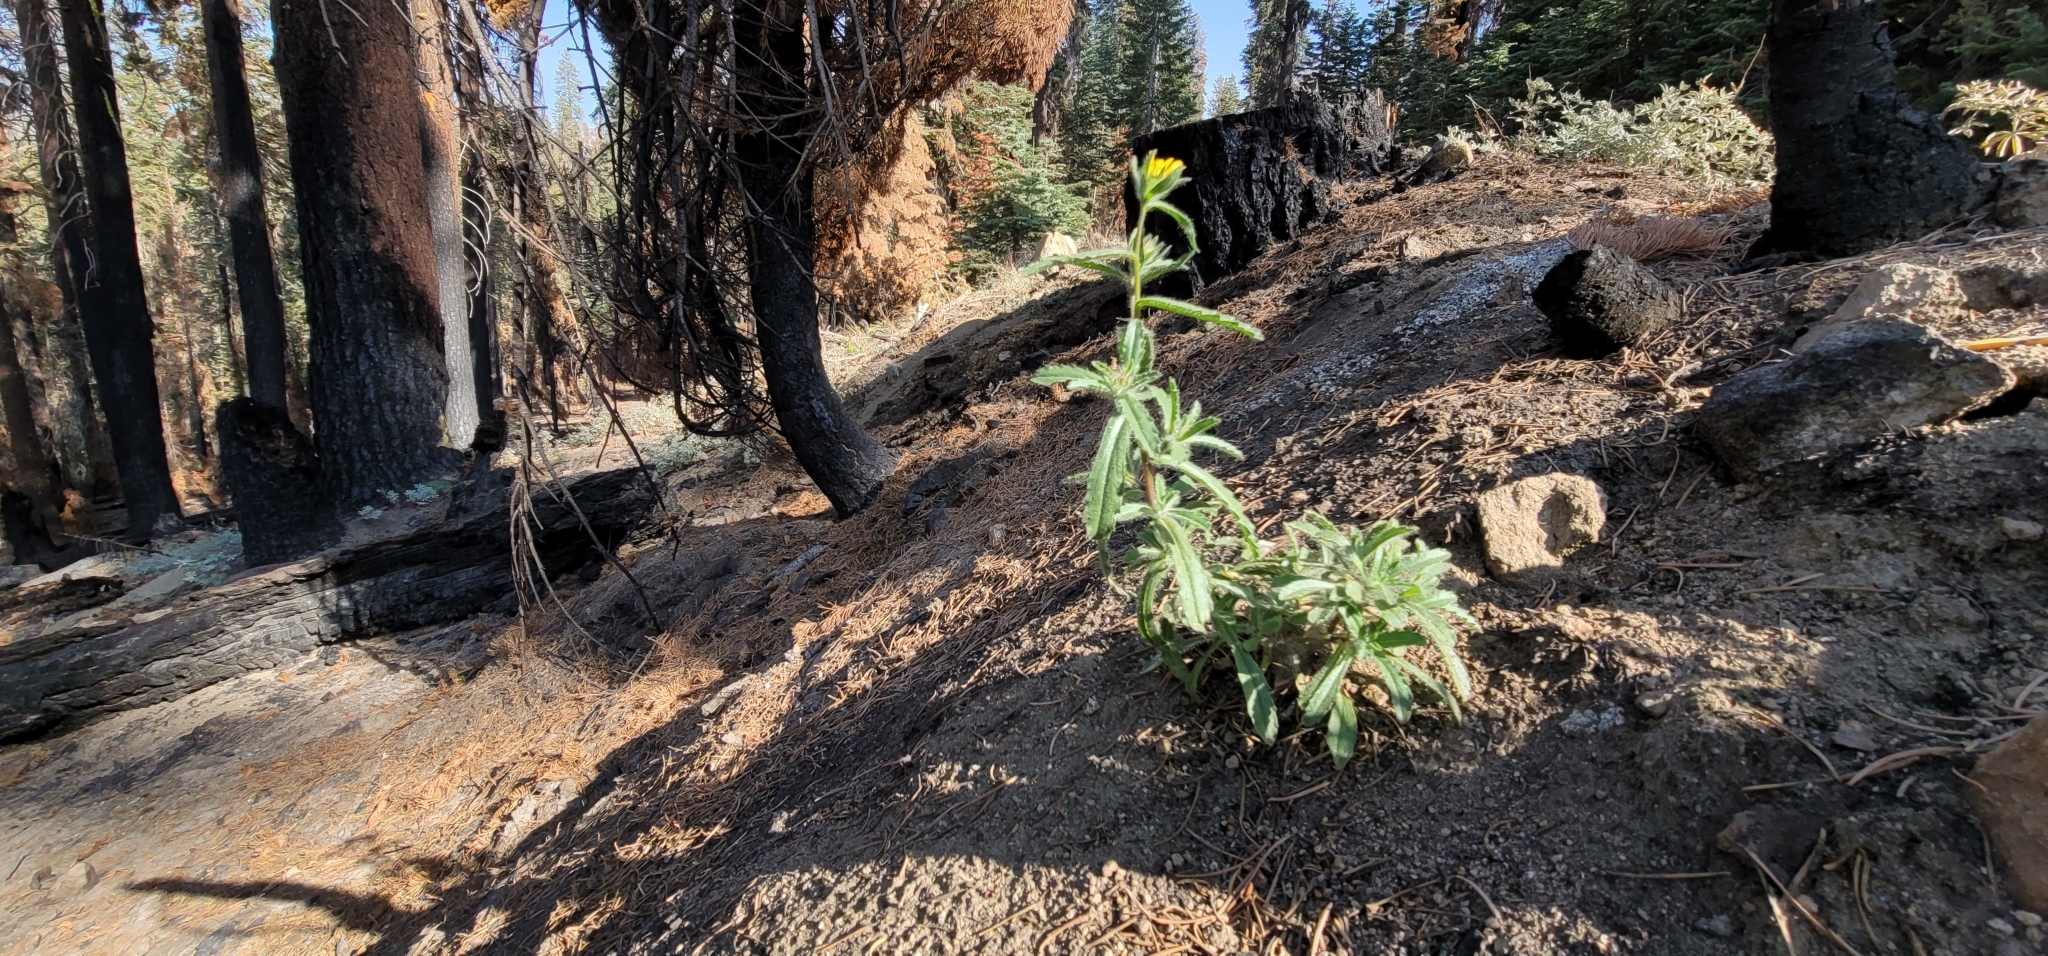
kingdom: Plantae
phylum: Tracheophyta
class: Magnoliopsida
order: Asterales
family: Asteraceae
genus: Hulsea
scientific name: Hulsea brevifolia
